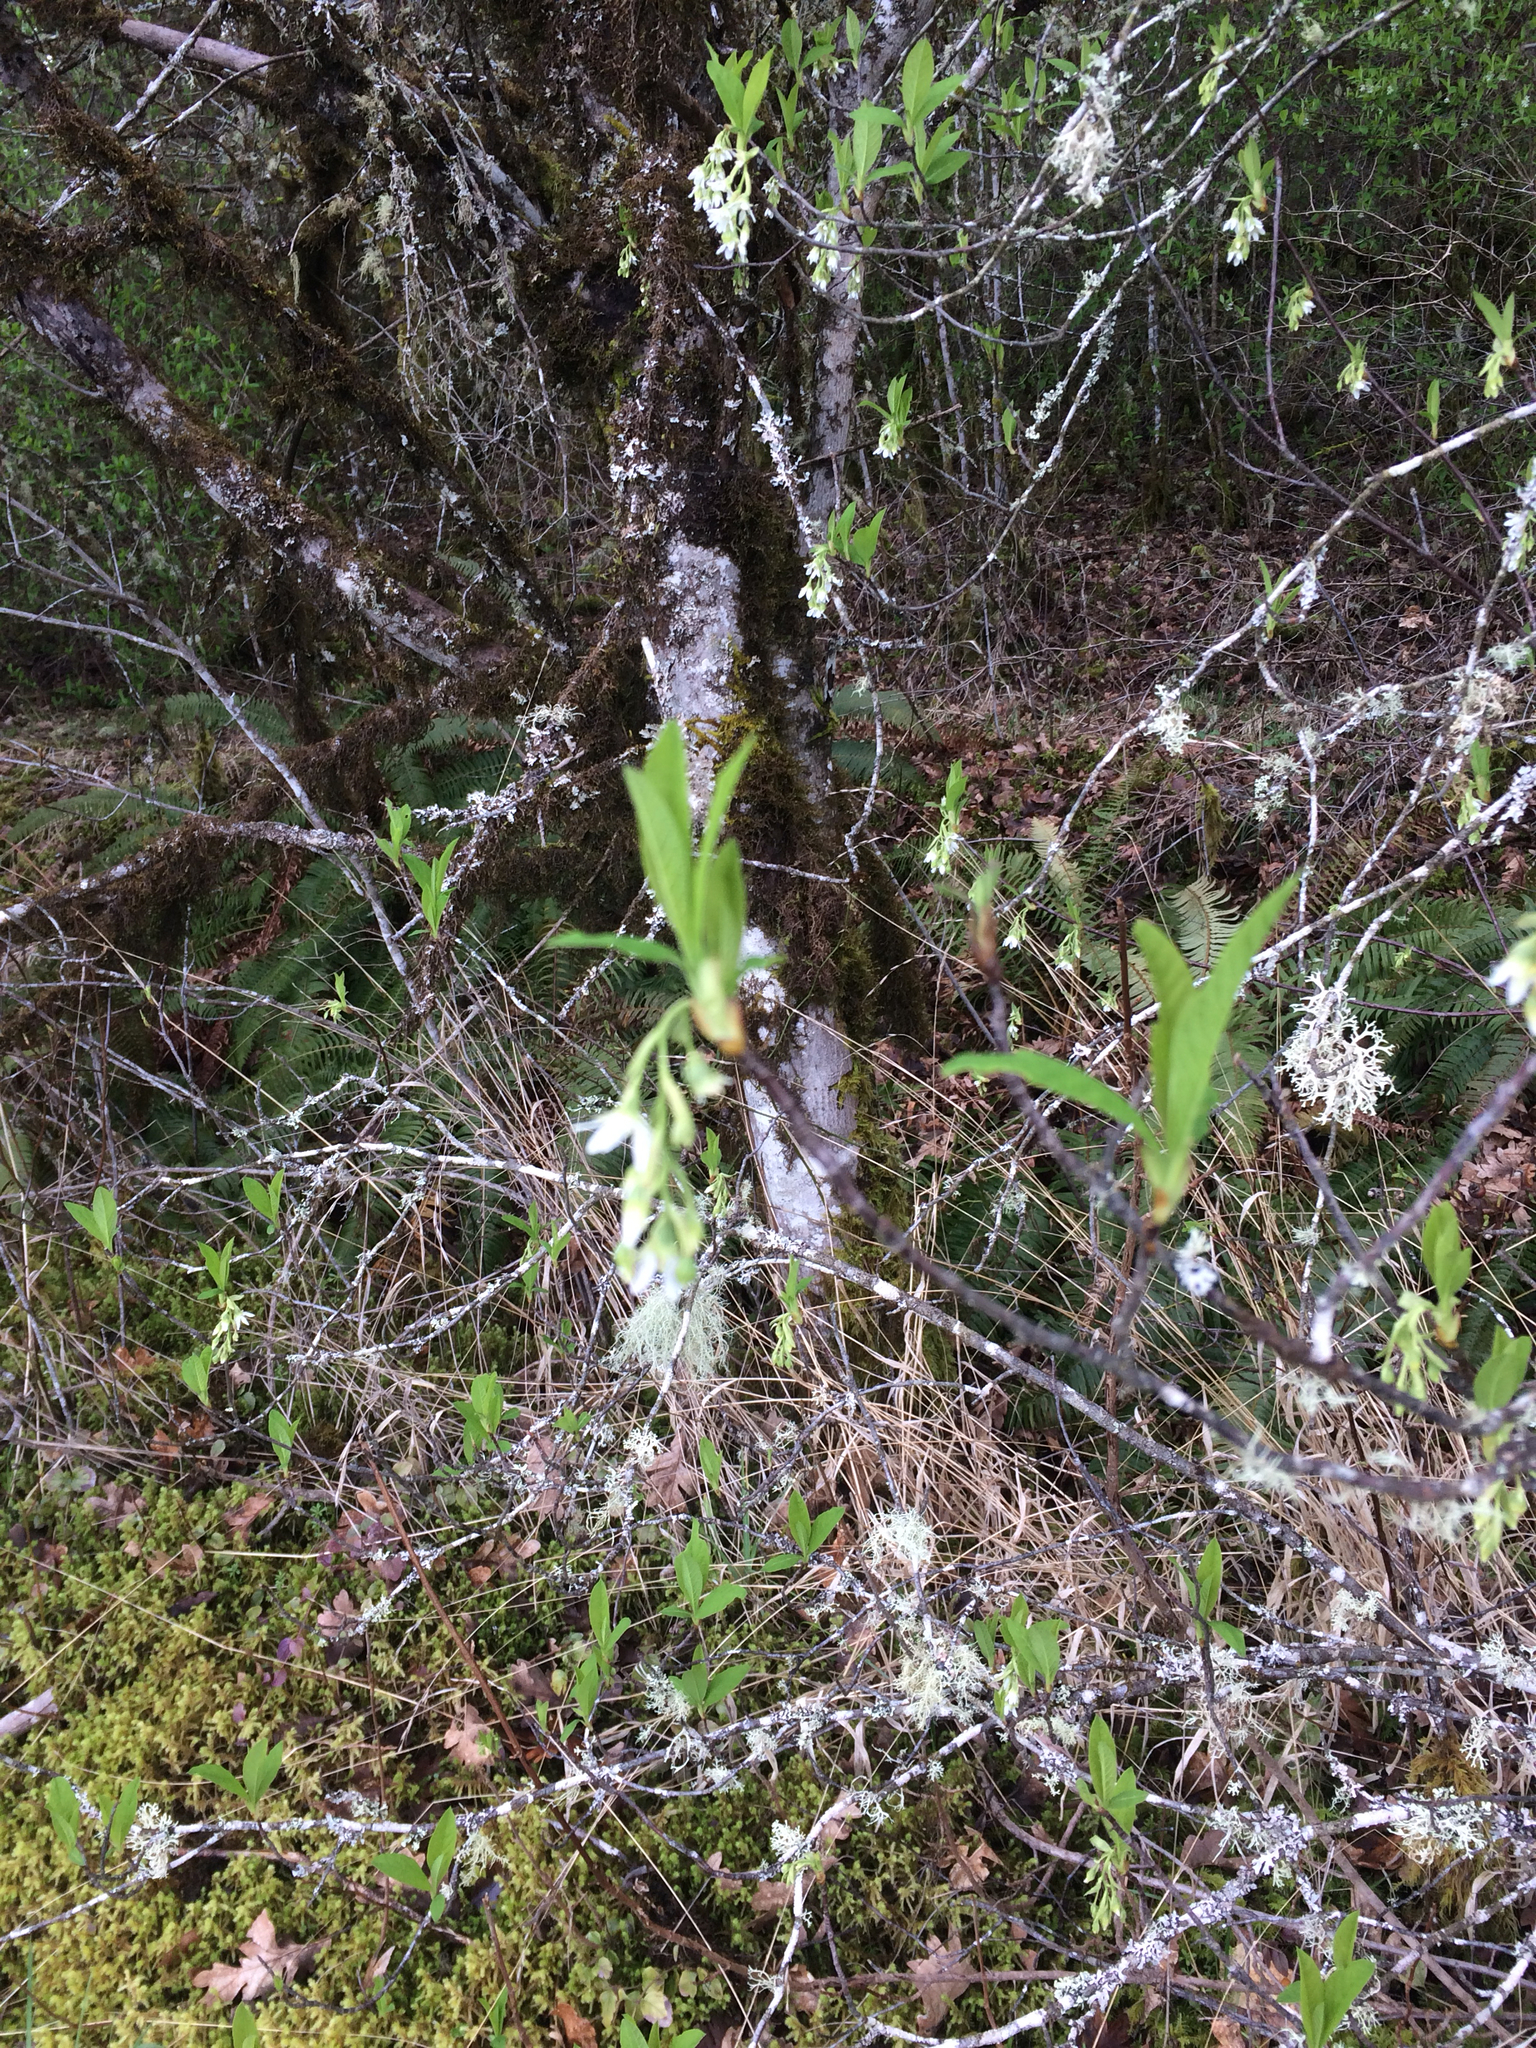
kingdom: Plantae
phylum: Tracheophyta
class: Magnoliopsida
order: Rosales
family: Rosaceae
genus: Oemleria
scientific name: Oemleria cerasiformis
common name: Osoberry
